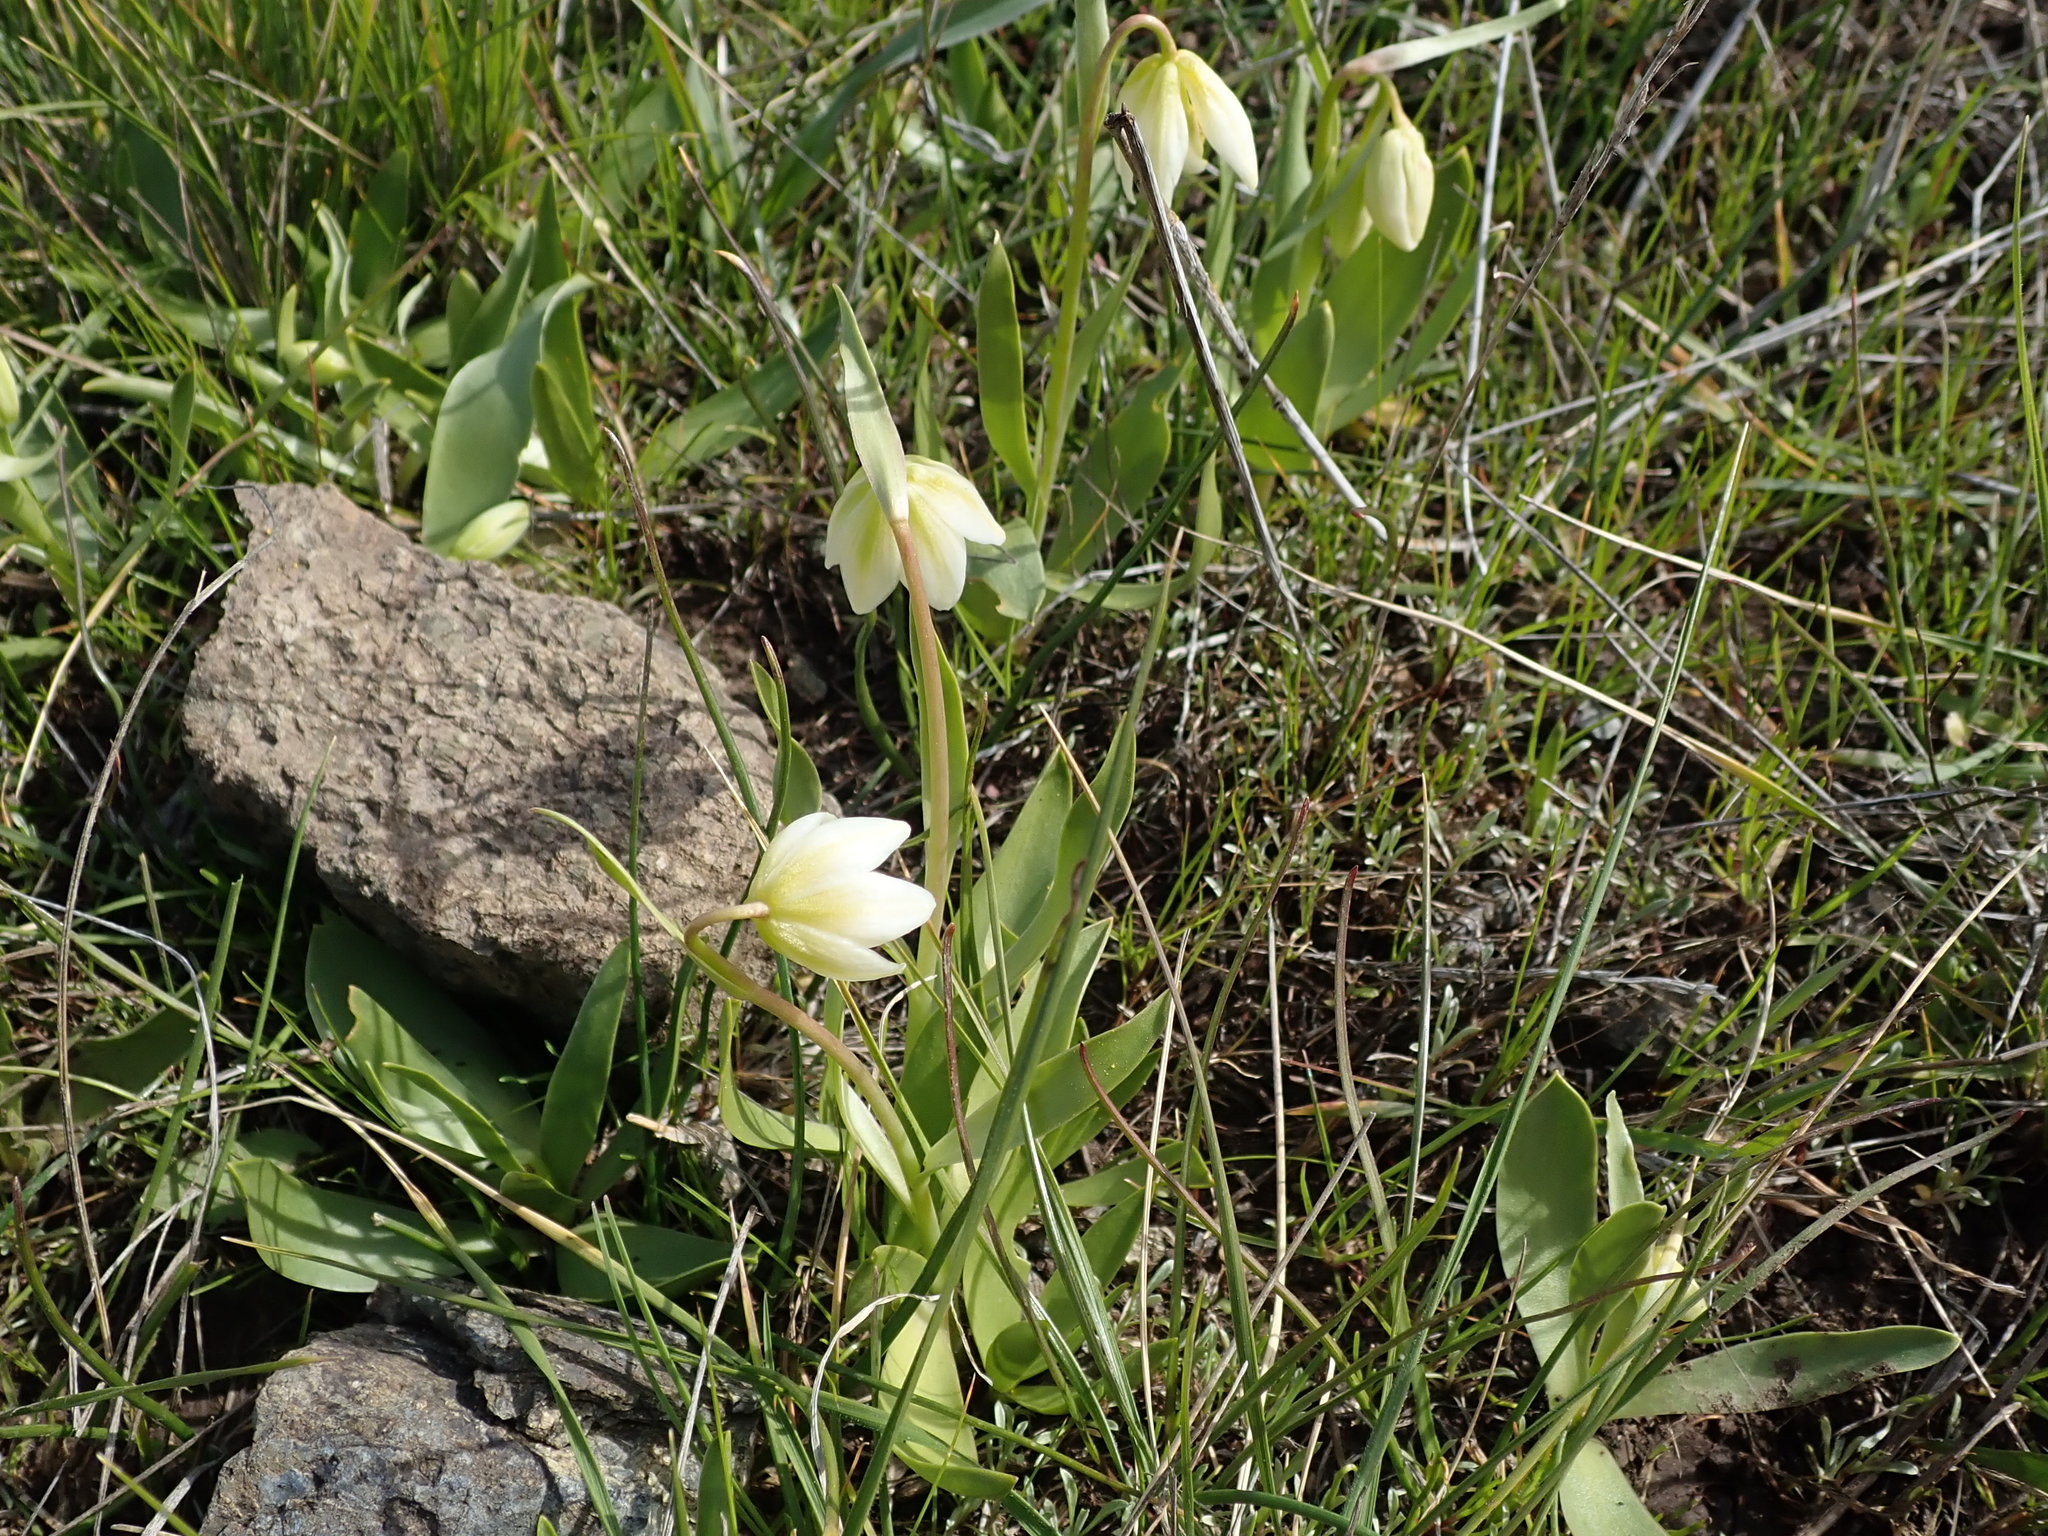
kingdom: Plantae
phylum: Tracheophyta
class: Liliopsida
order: Liliales
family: Liliaceae
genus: Fritillaria
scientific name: Fritillaria liliacea
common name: Fragrant fritillary
